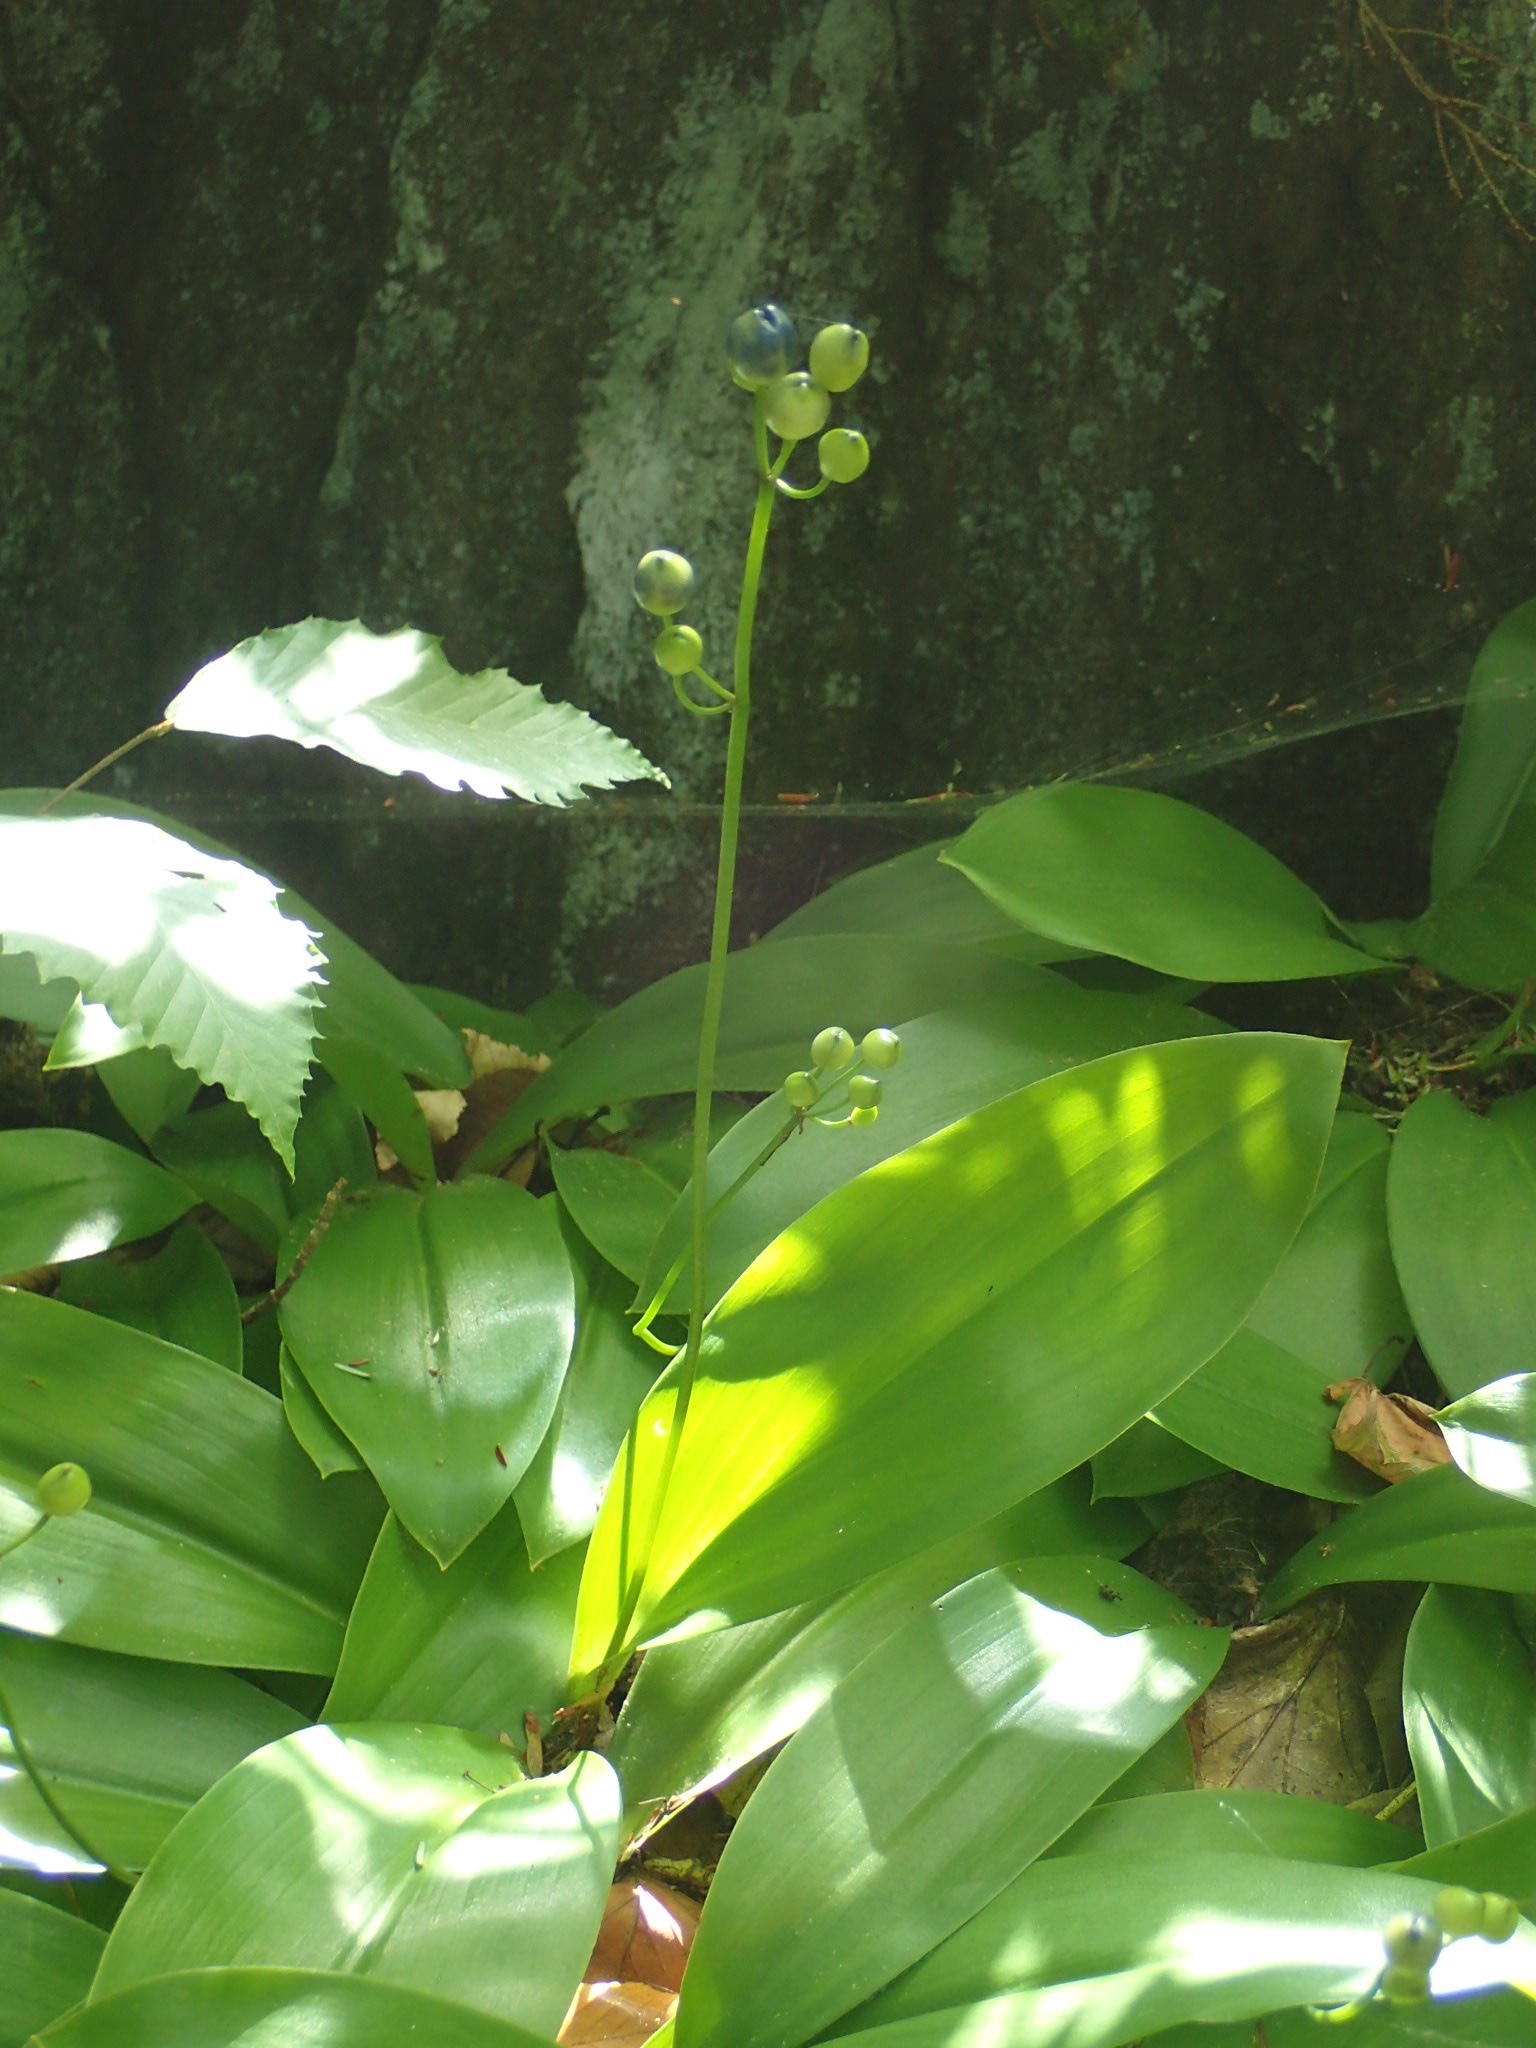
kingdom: Plantae
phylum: Tracheophyta
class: Liliopsida
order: Liliales
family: Liliaceae
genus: Clintonia
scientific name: Clintonia borealis
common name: Yellow clintonia
